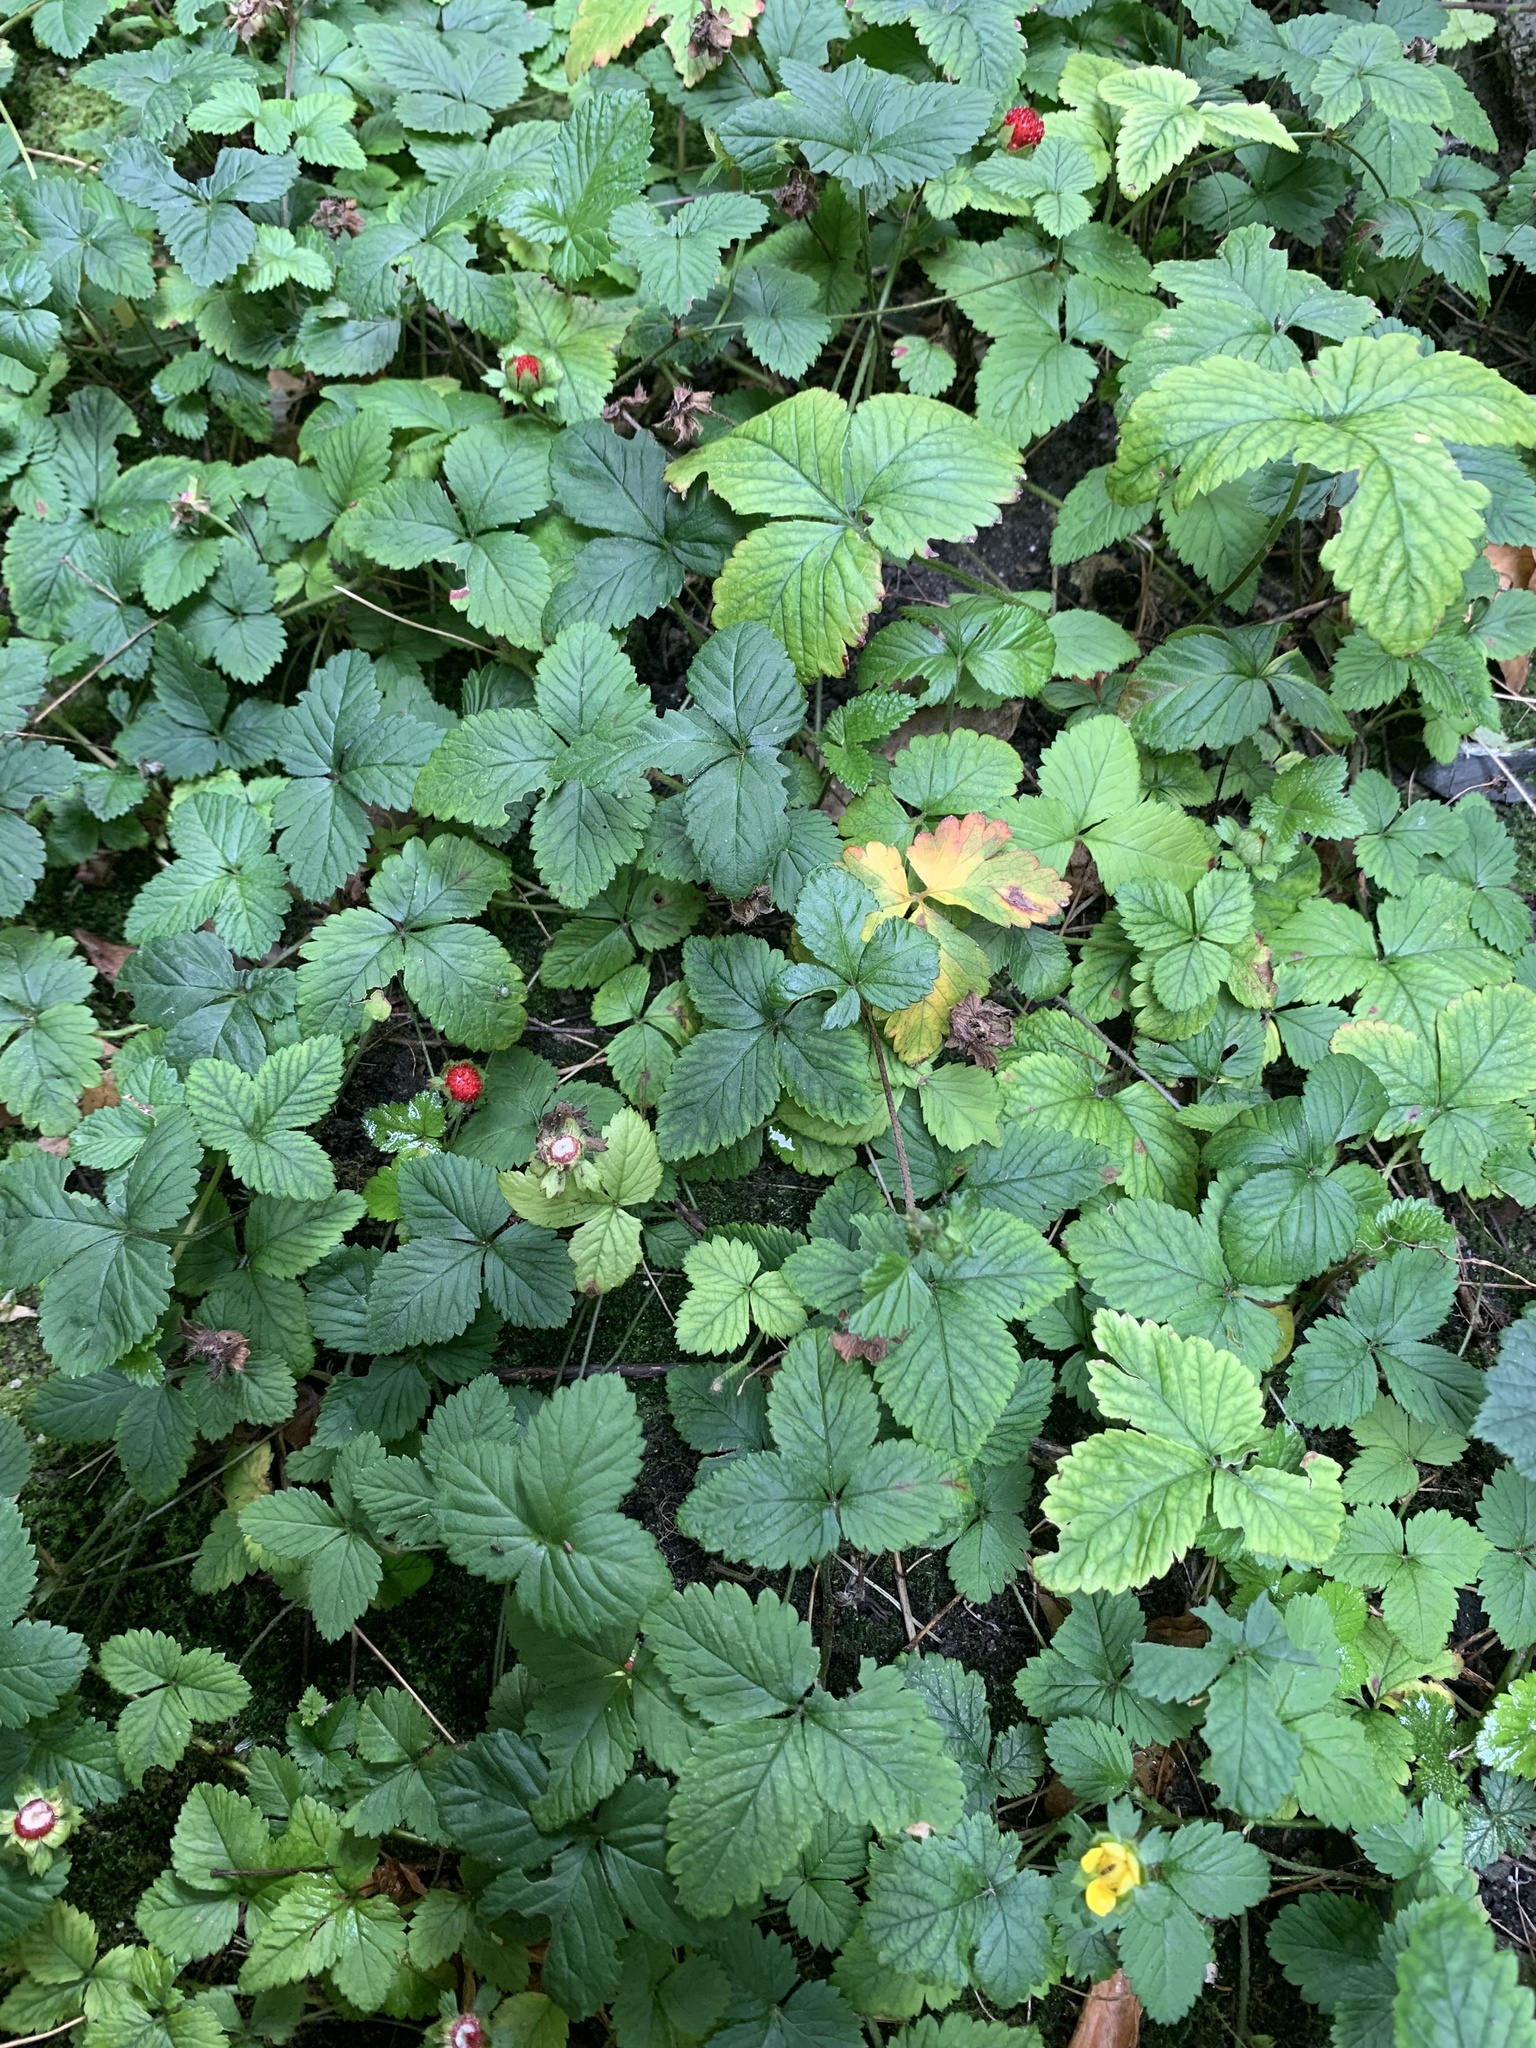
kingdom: Plantae
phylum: Tracheophyta
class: Magnoliopsida
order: Rosales
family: Rosaceae
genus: Potentilla
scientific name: Potentilla indica
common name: Yellow-flowered strawberry
